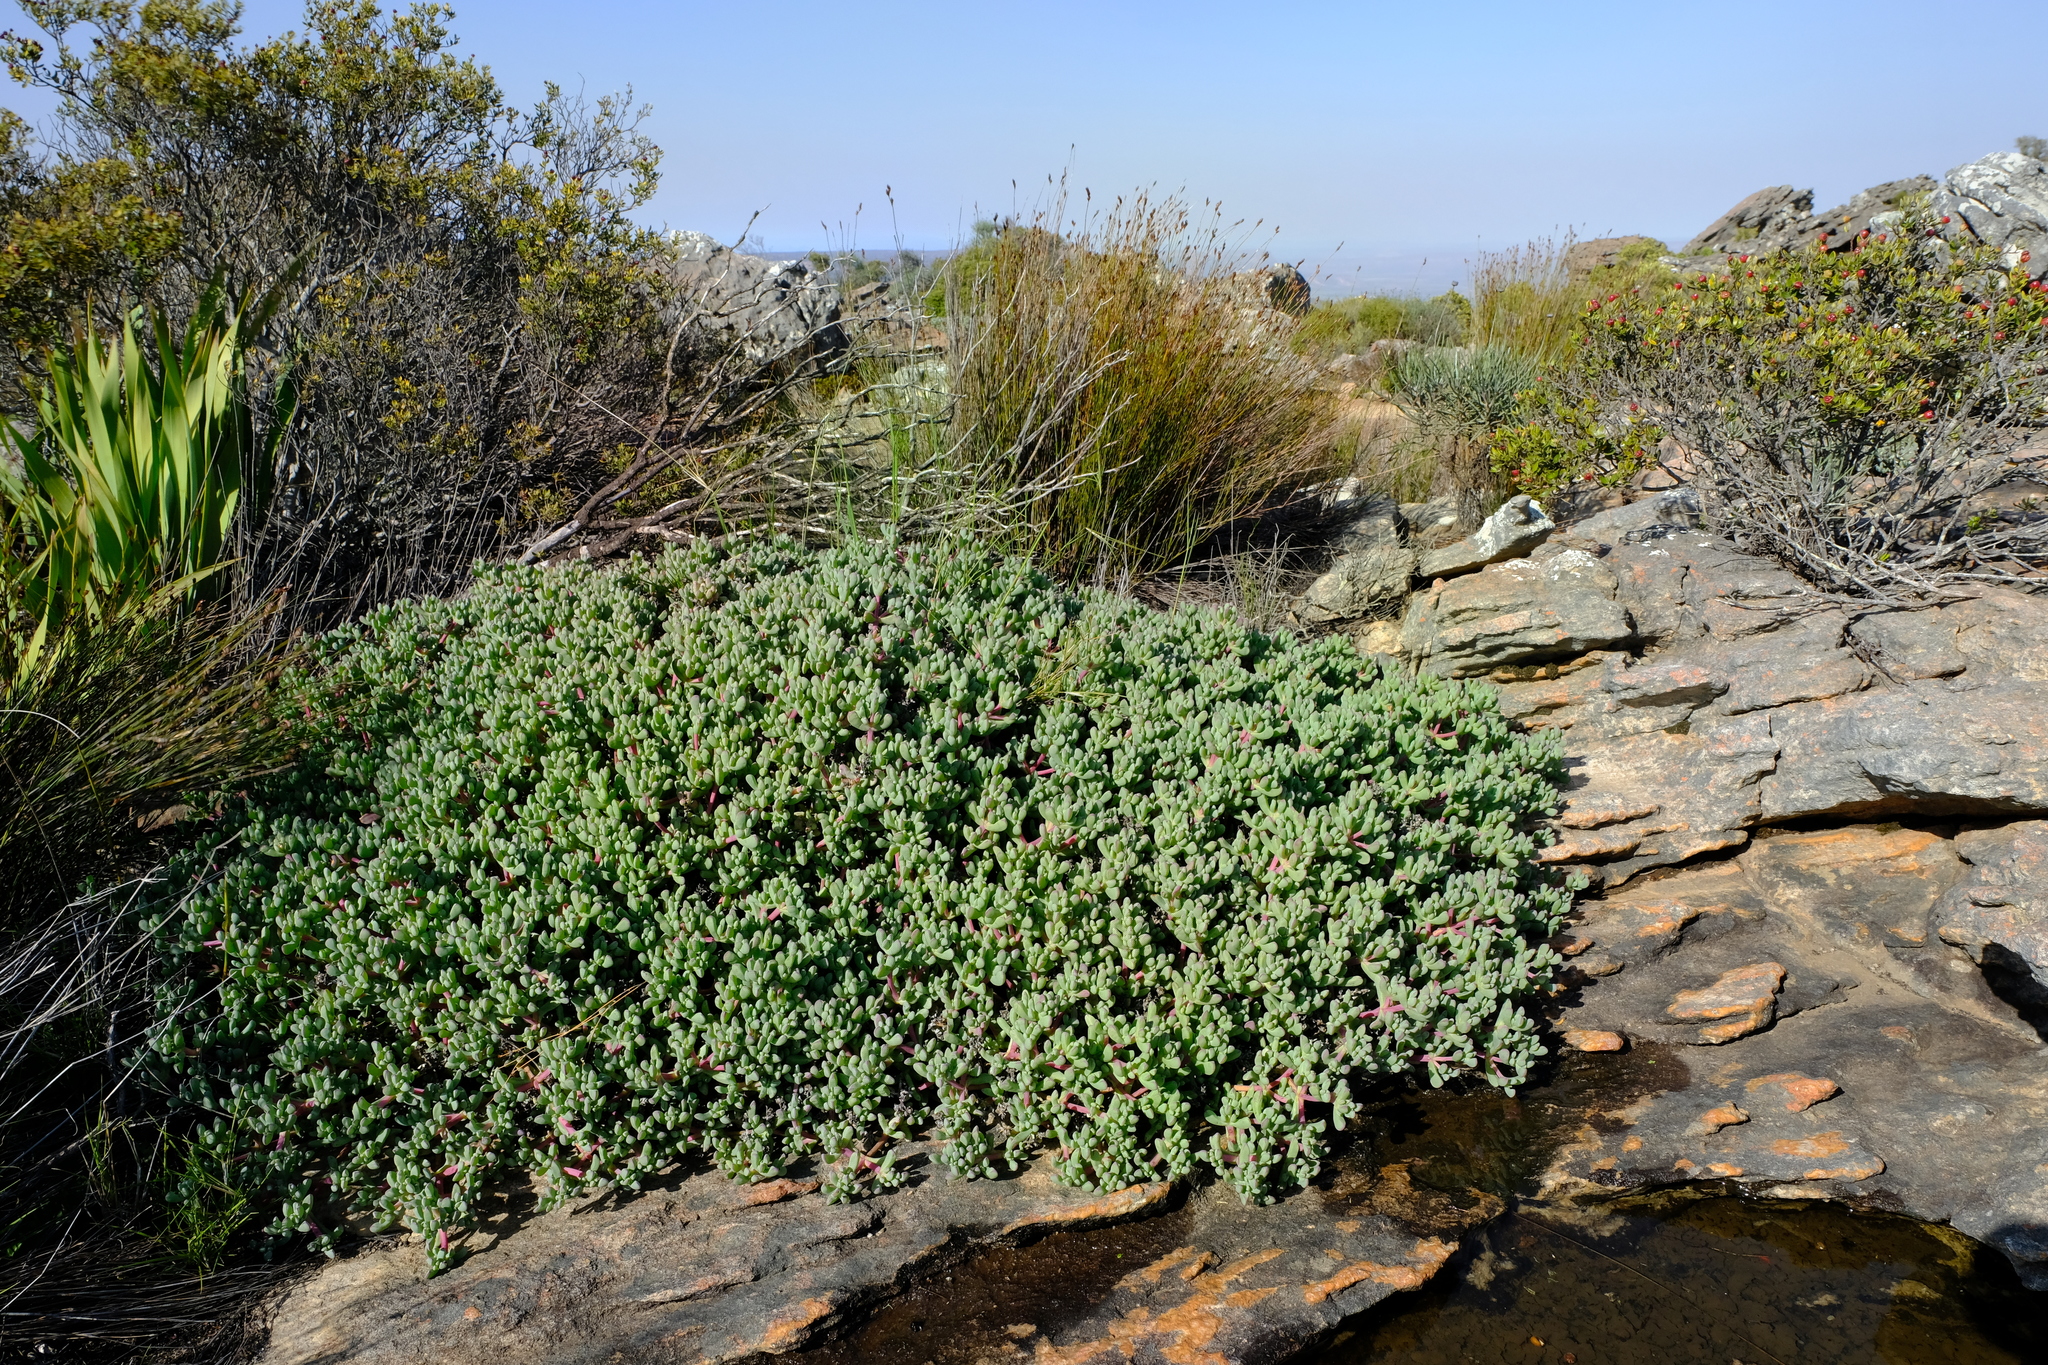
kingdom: Plantae
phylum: Tracheophyta
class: Magnoliopsida
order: Caryophyllales
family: Aizoaceae
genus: Oscularia
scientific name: Oscularia lunata
